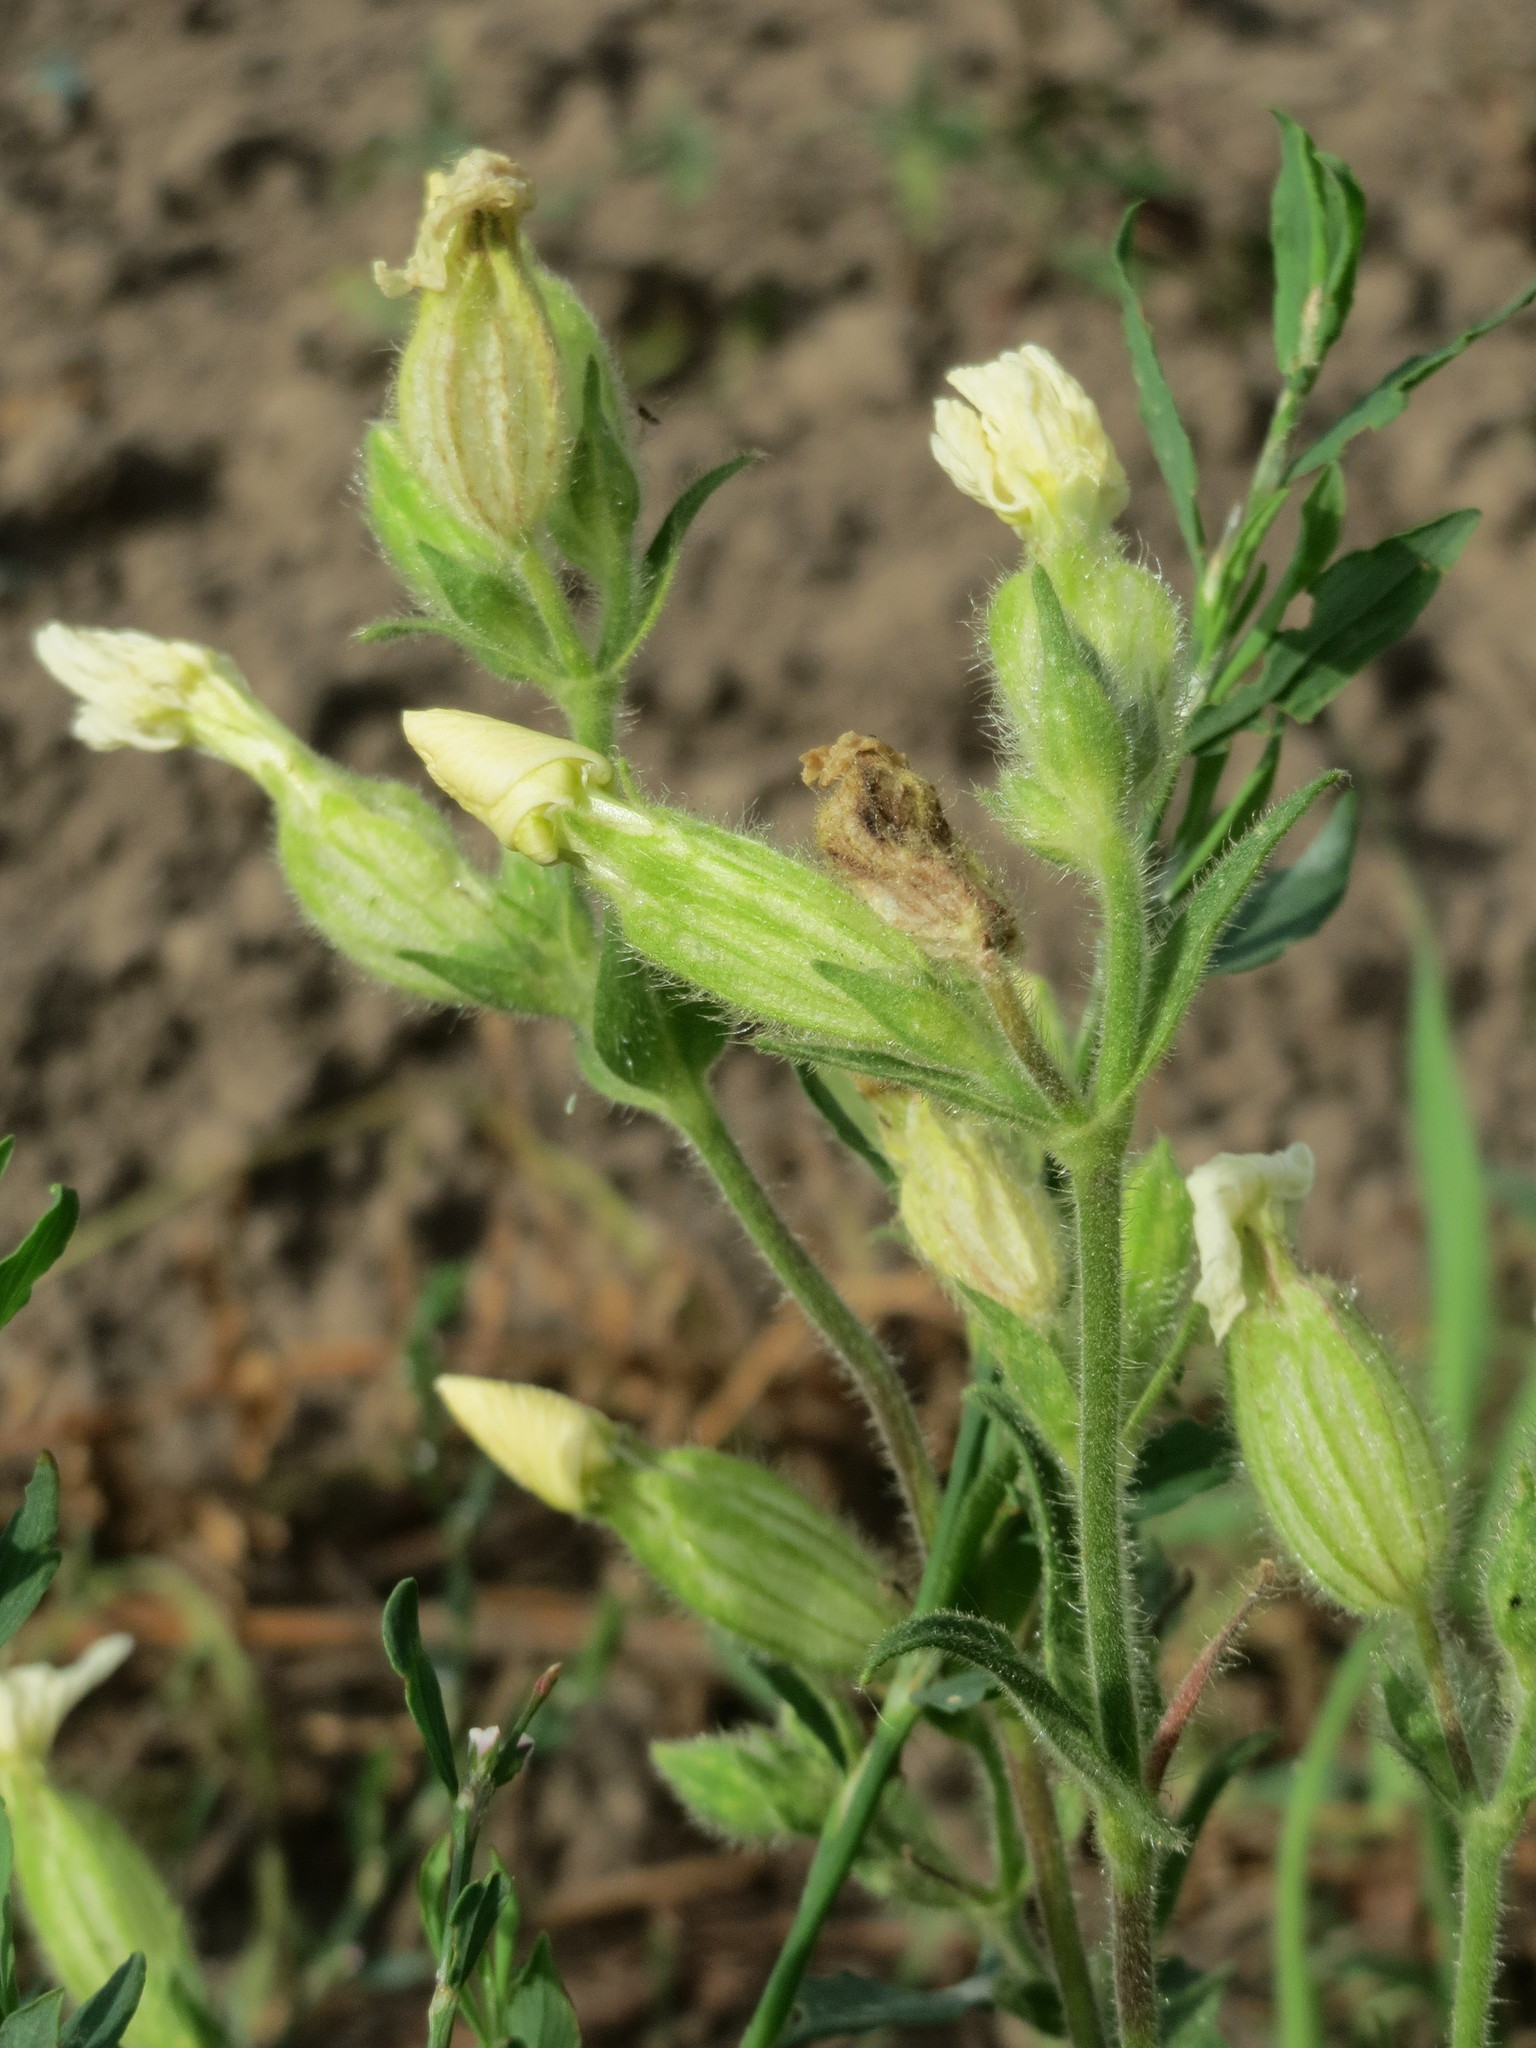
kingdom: Plantae
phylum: Tracheophyta
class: Magnoliopsida
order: Caryophyllales
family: Caryophyllaceae
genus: Silene
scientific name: Silene latifolia
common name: White campion
